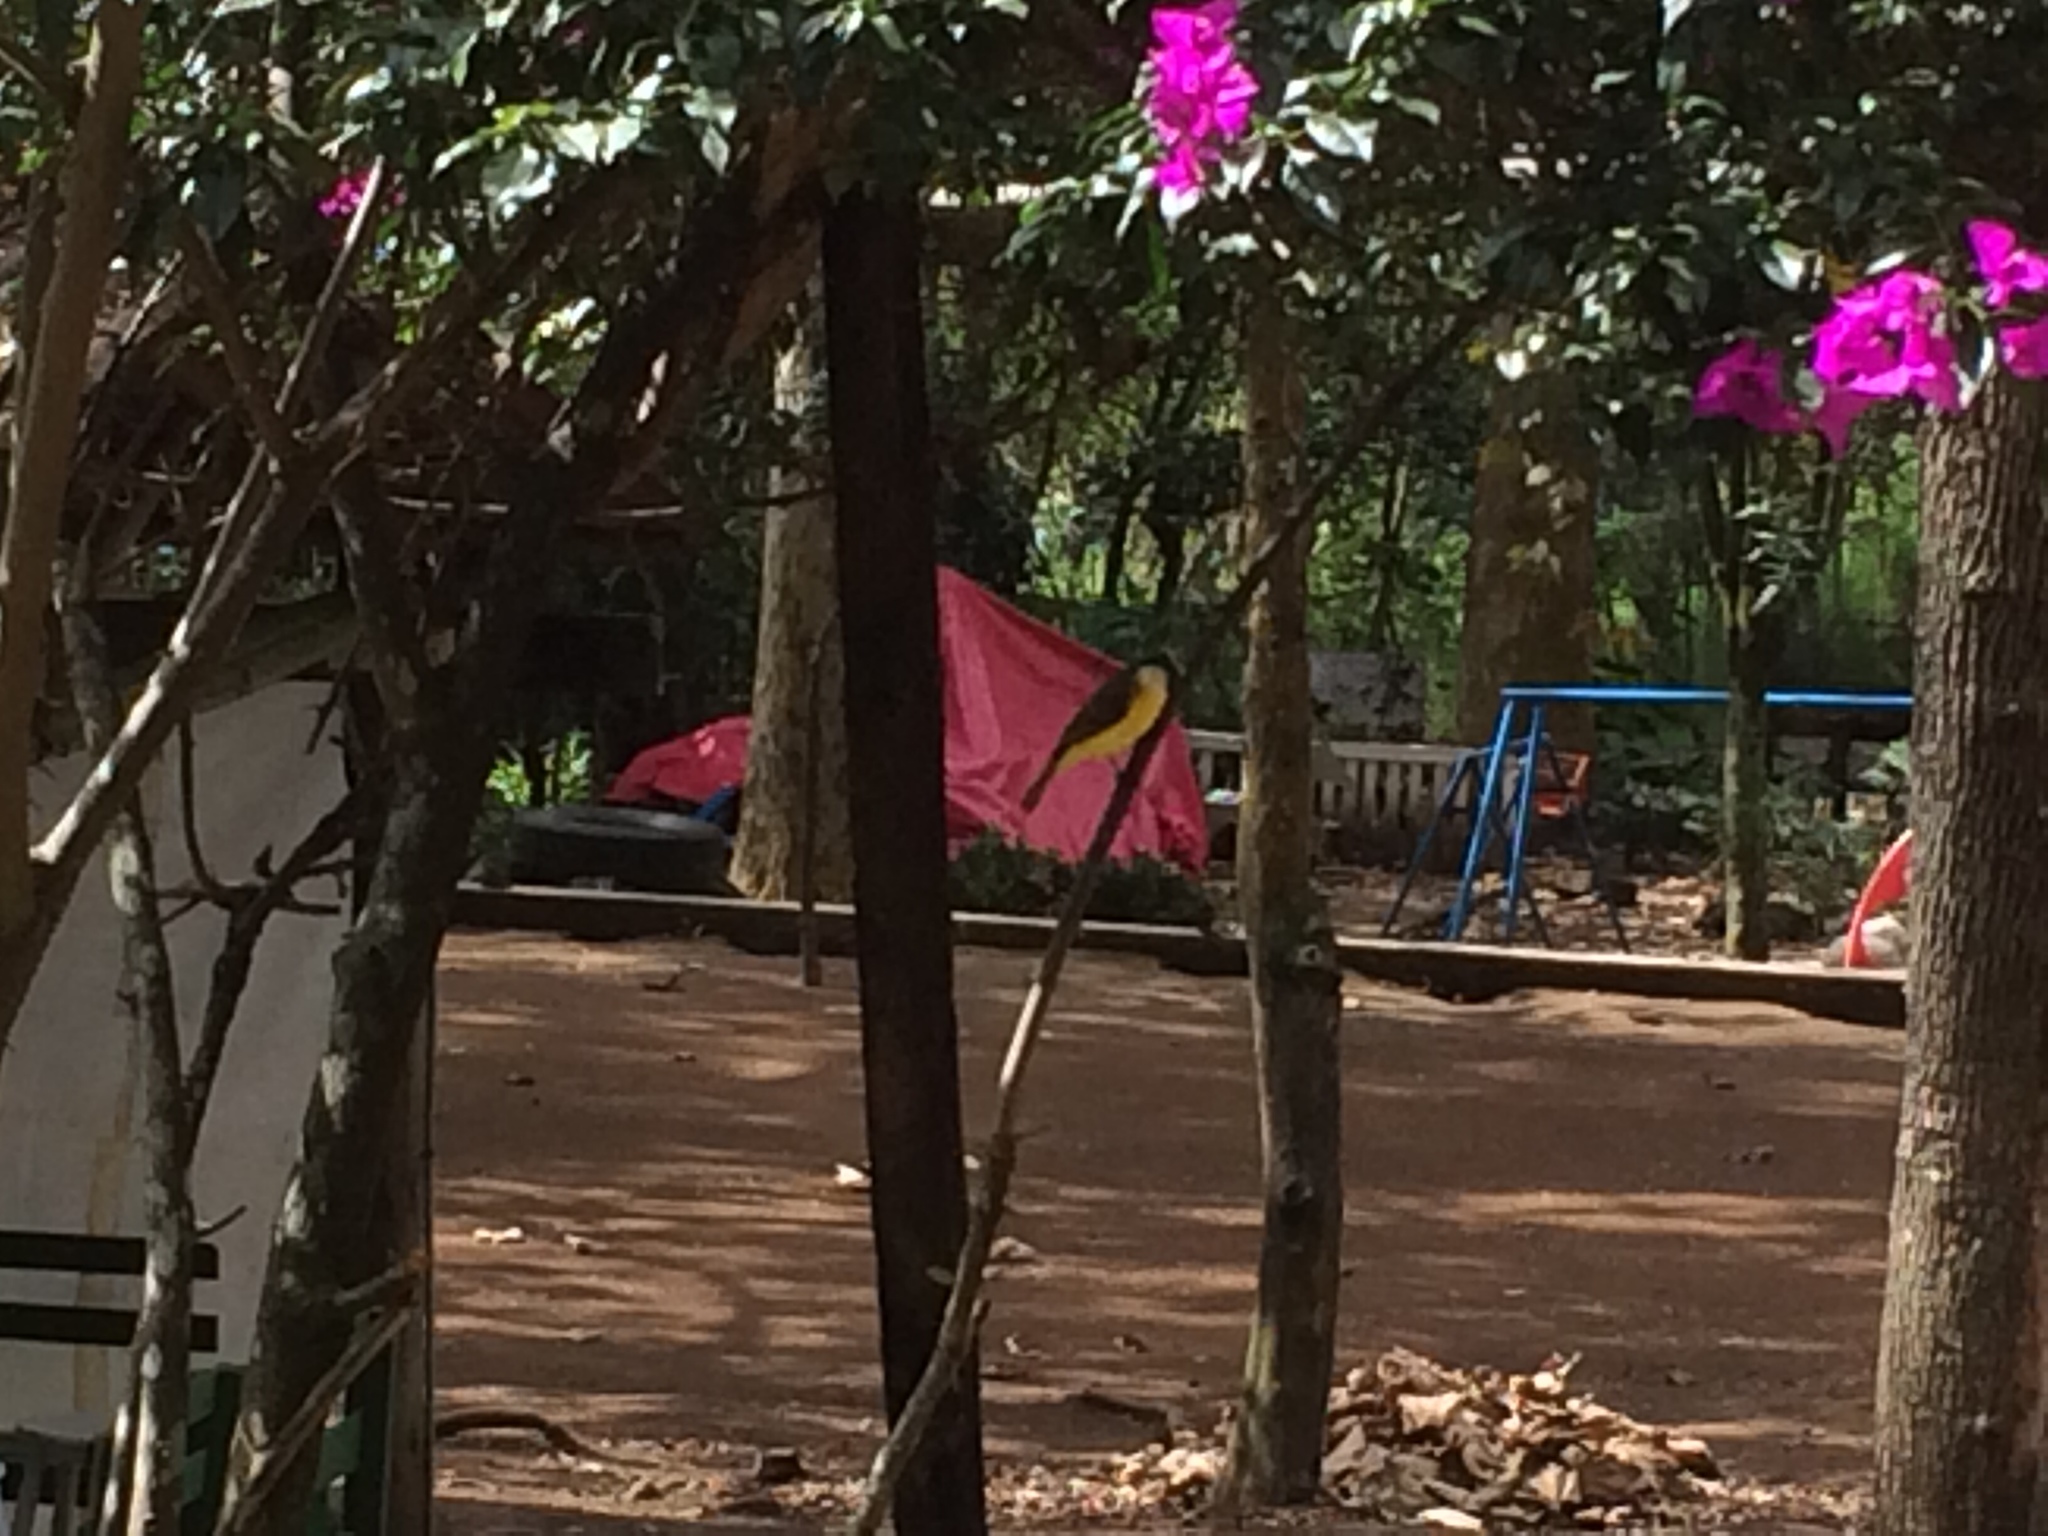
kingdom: Animalia
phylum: Chordata
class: Aves
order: Passeriformes
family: Tyrannidae
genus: Myiozetetes
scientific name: Myiozetetes similis
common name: Social flycatcher
